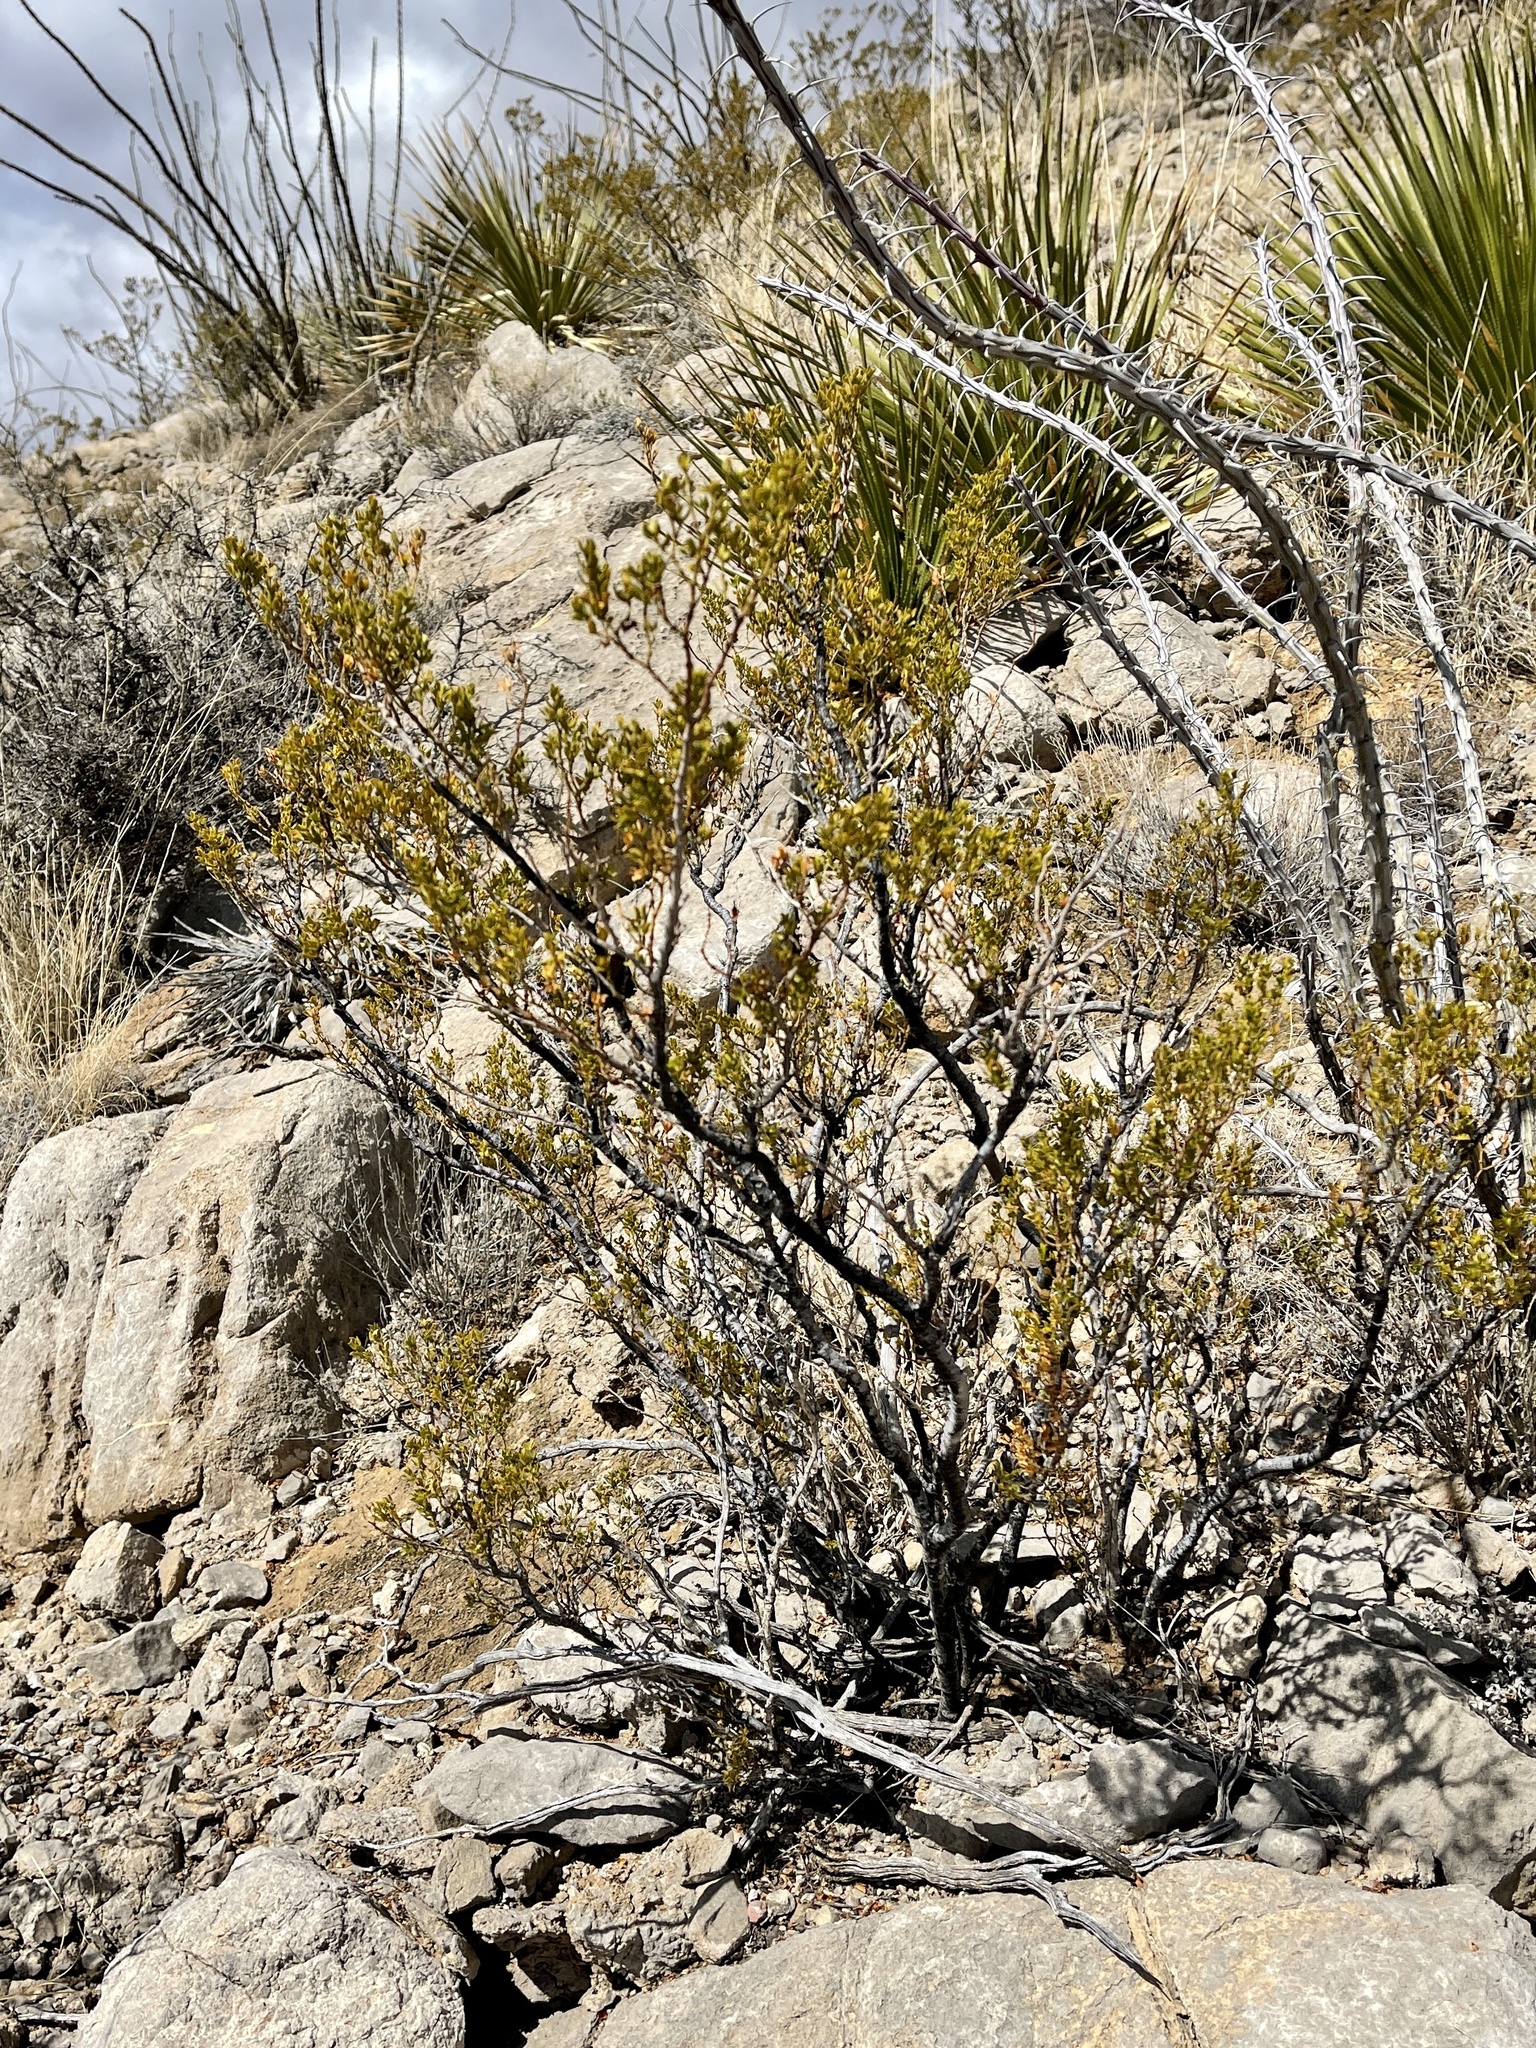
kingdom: Plantae
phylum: Tracheophyta
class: Magnoliopsida
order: Zygophyllales
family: Zygophyllaceae
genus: Larrea
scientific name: Larrea tridentata
